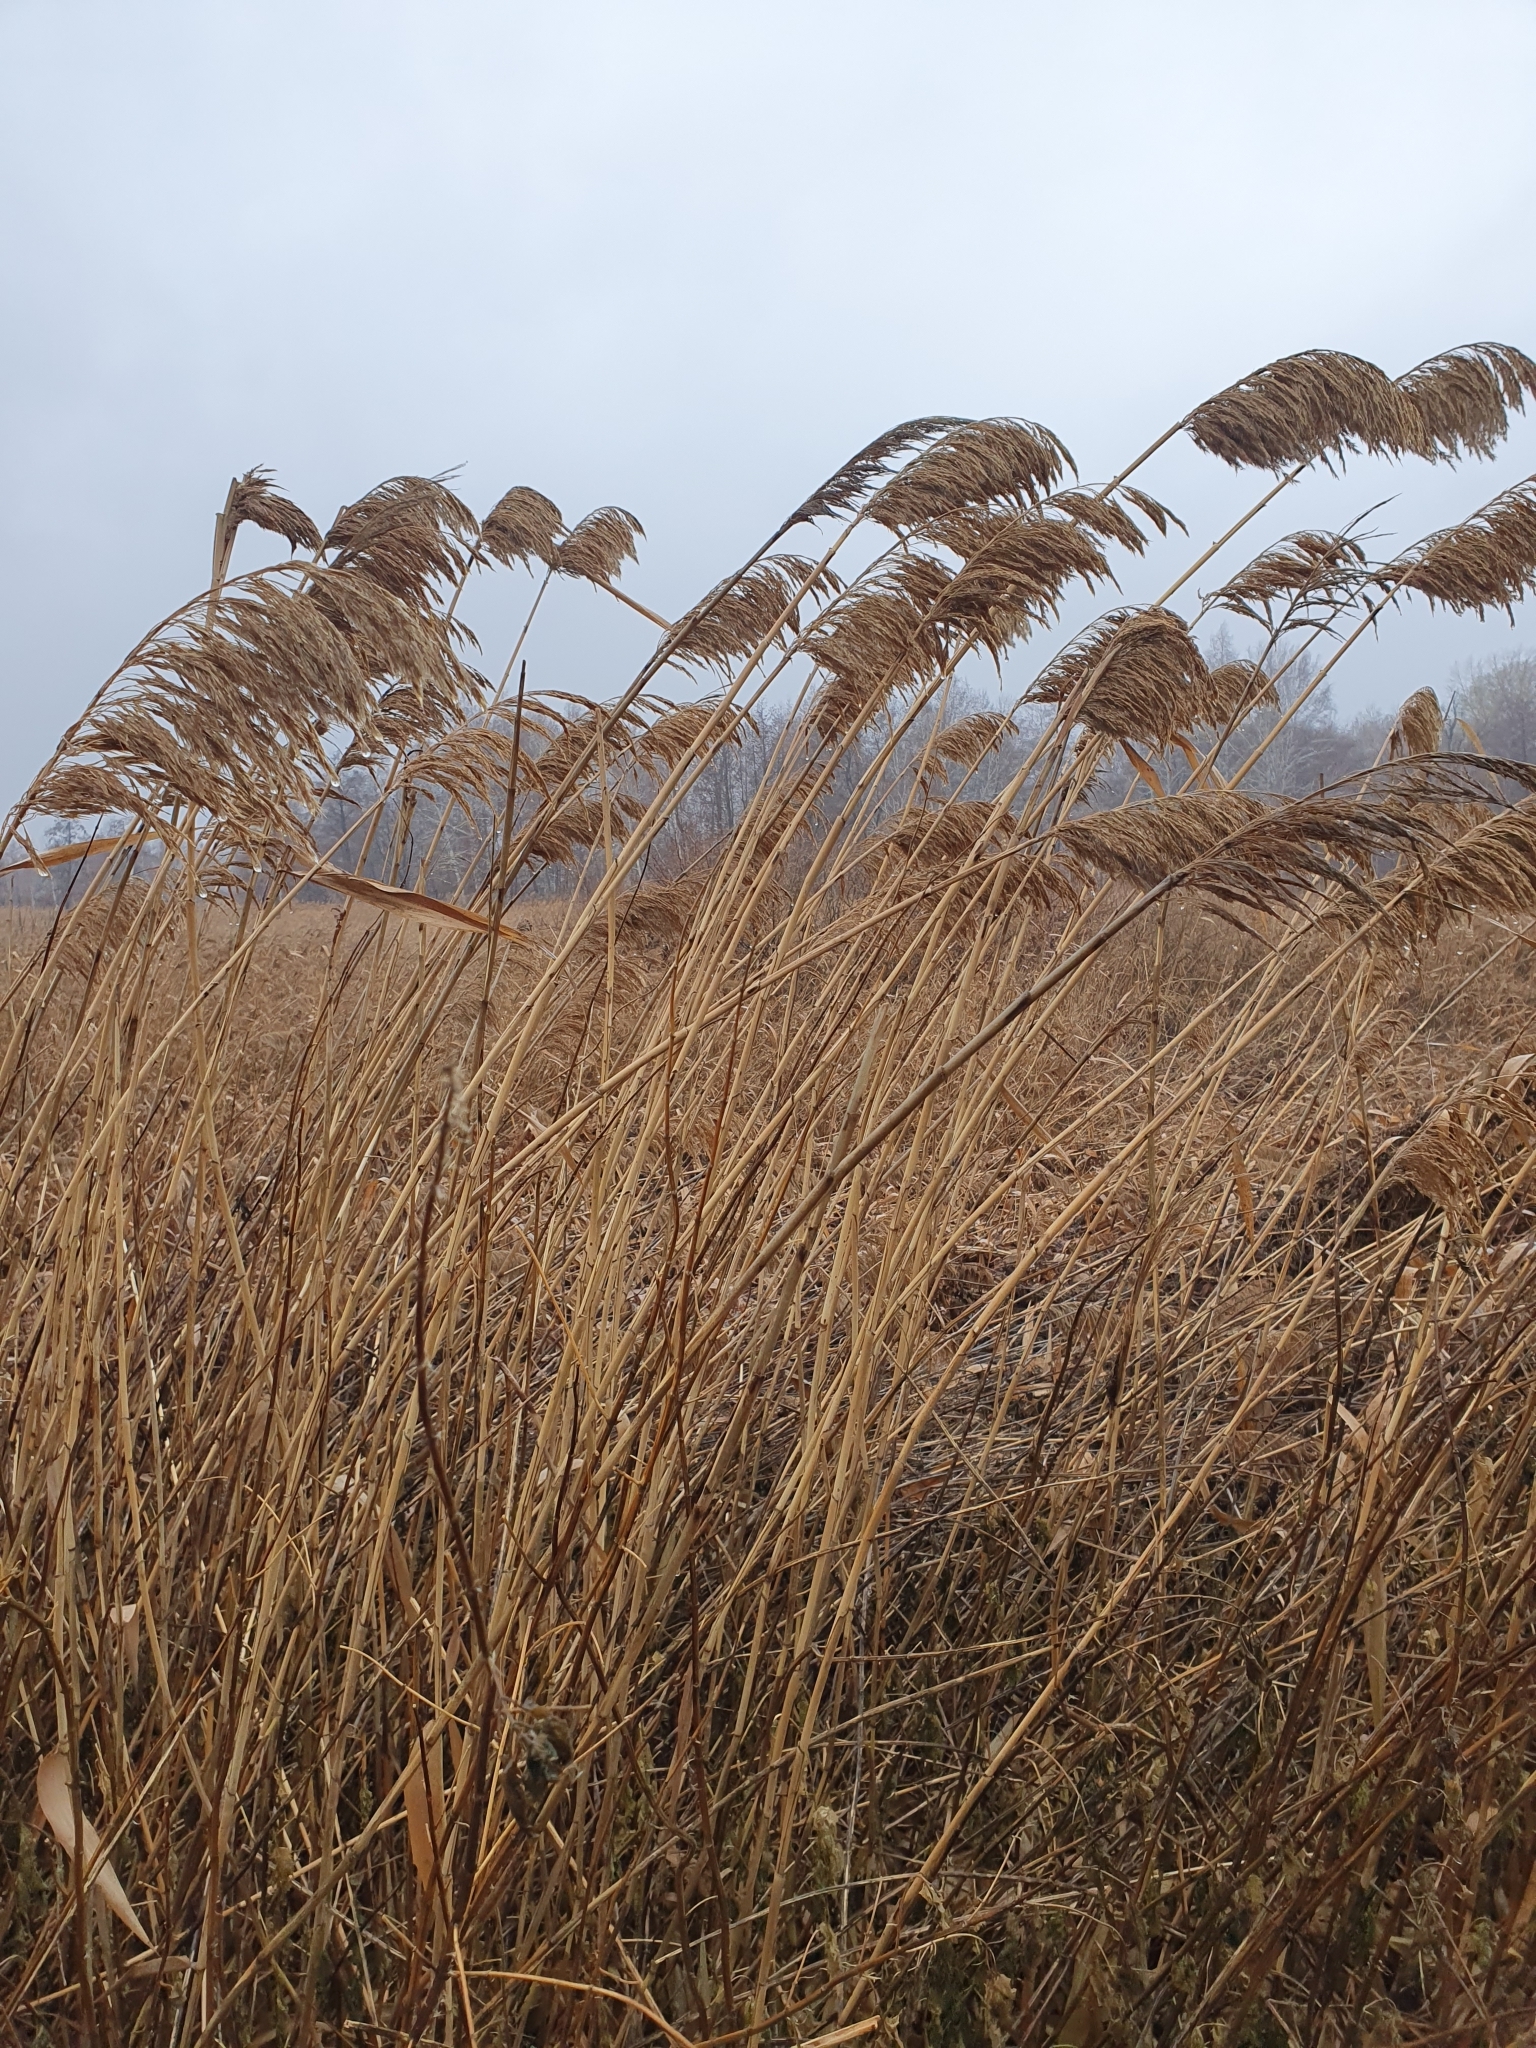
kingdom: Plantae
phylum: Tracheophyta
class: Liliopsida
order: Poales
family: Poaceae
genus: Phragmites
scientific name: Phragmites australis
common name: Common reed
